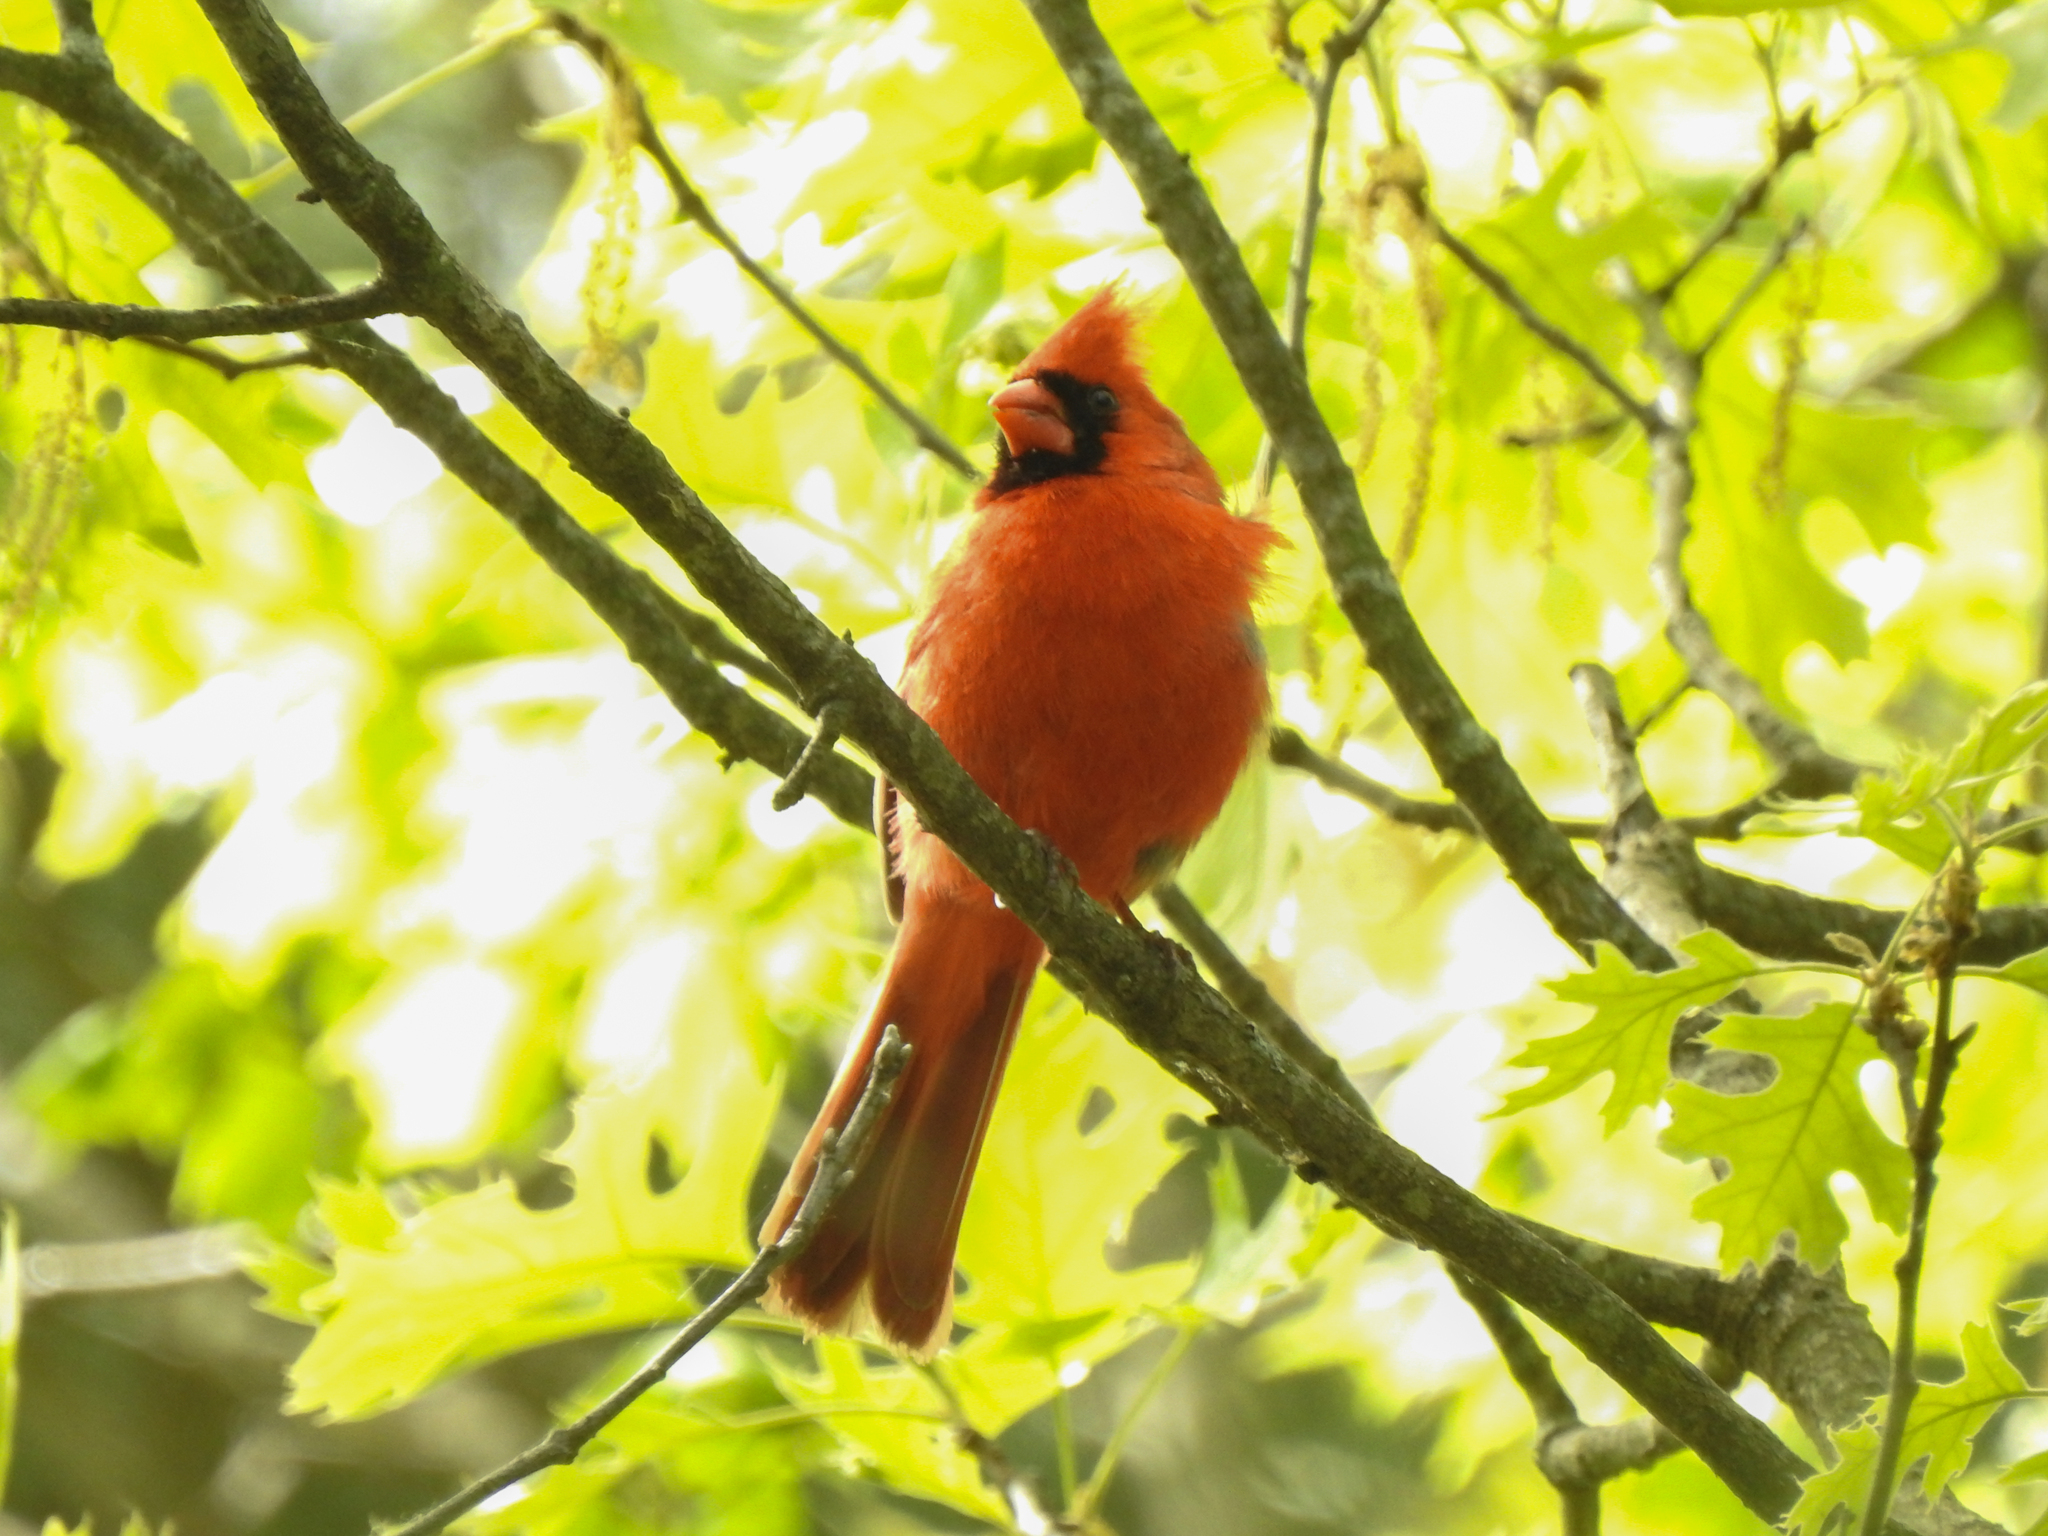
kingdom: Animalia
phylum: Chordata
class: Aves
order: Passeriformes
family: Cardinalidae
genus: Cardinalis
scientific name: Cardinalis cardinalis
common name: Northern cardinal
